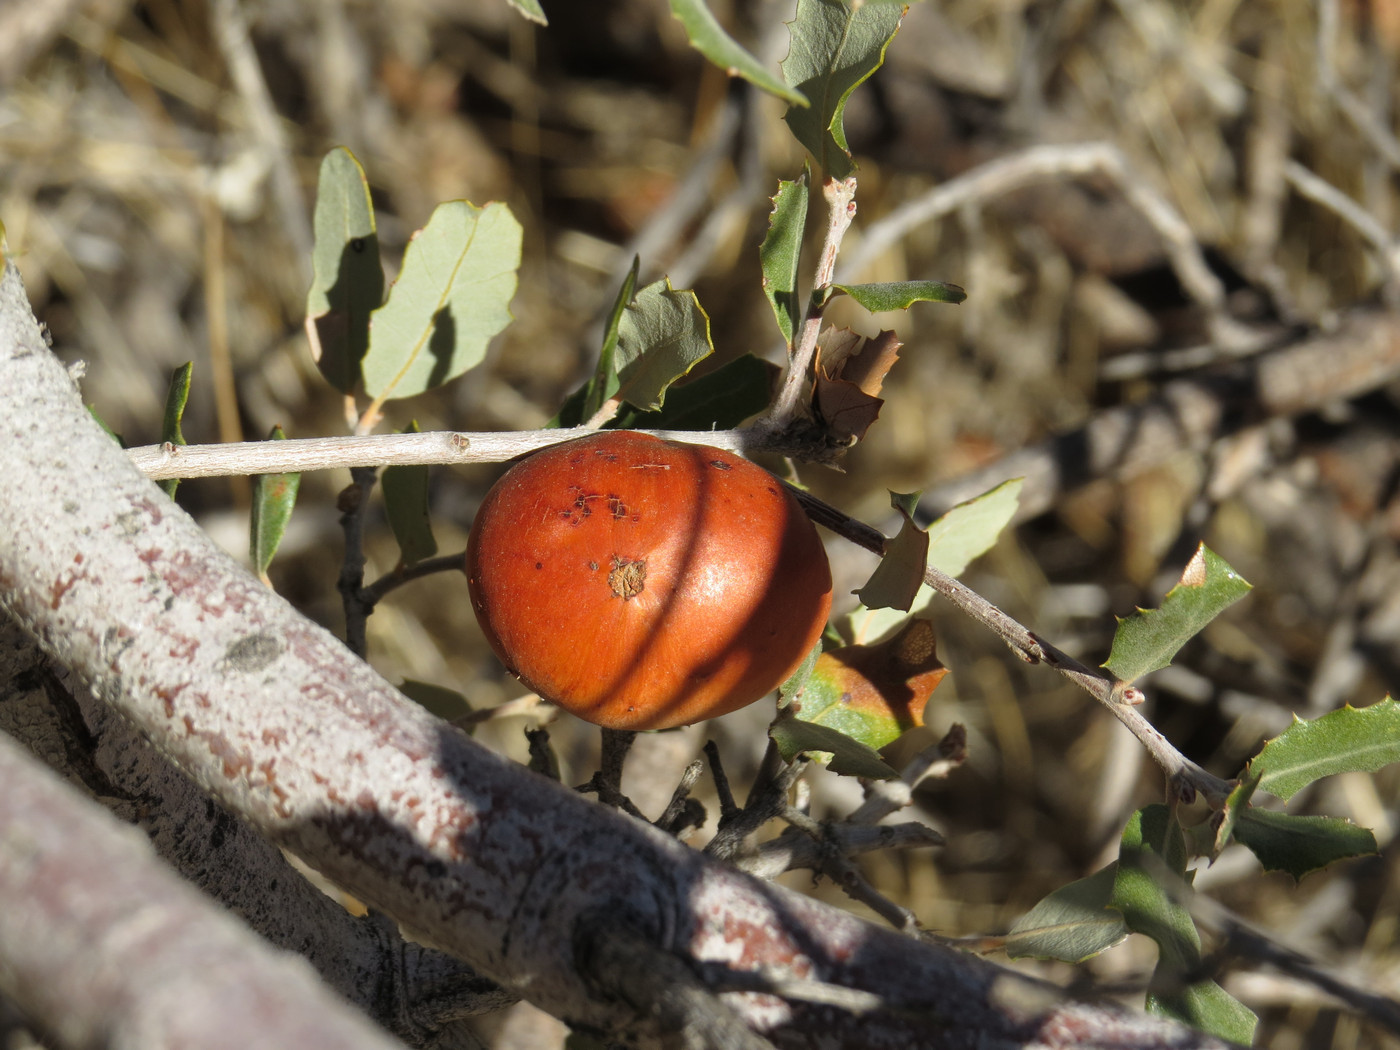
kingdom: Animalia
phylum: Arthropoda
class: Insecta
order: Hymenoptera
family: Cynipidae
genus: Andricus
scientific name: Andricus quercuscalifornicus
